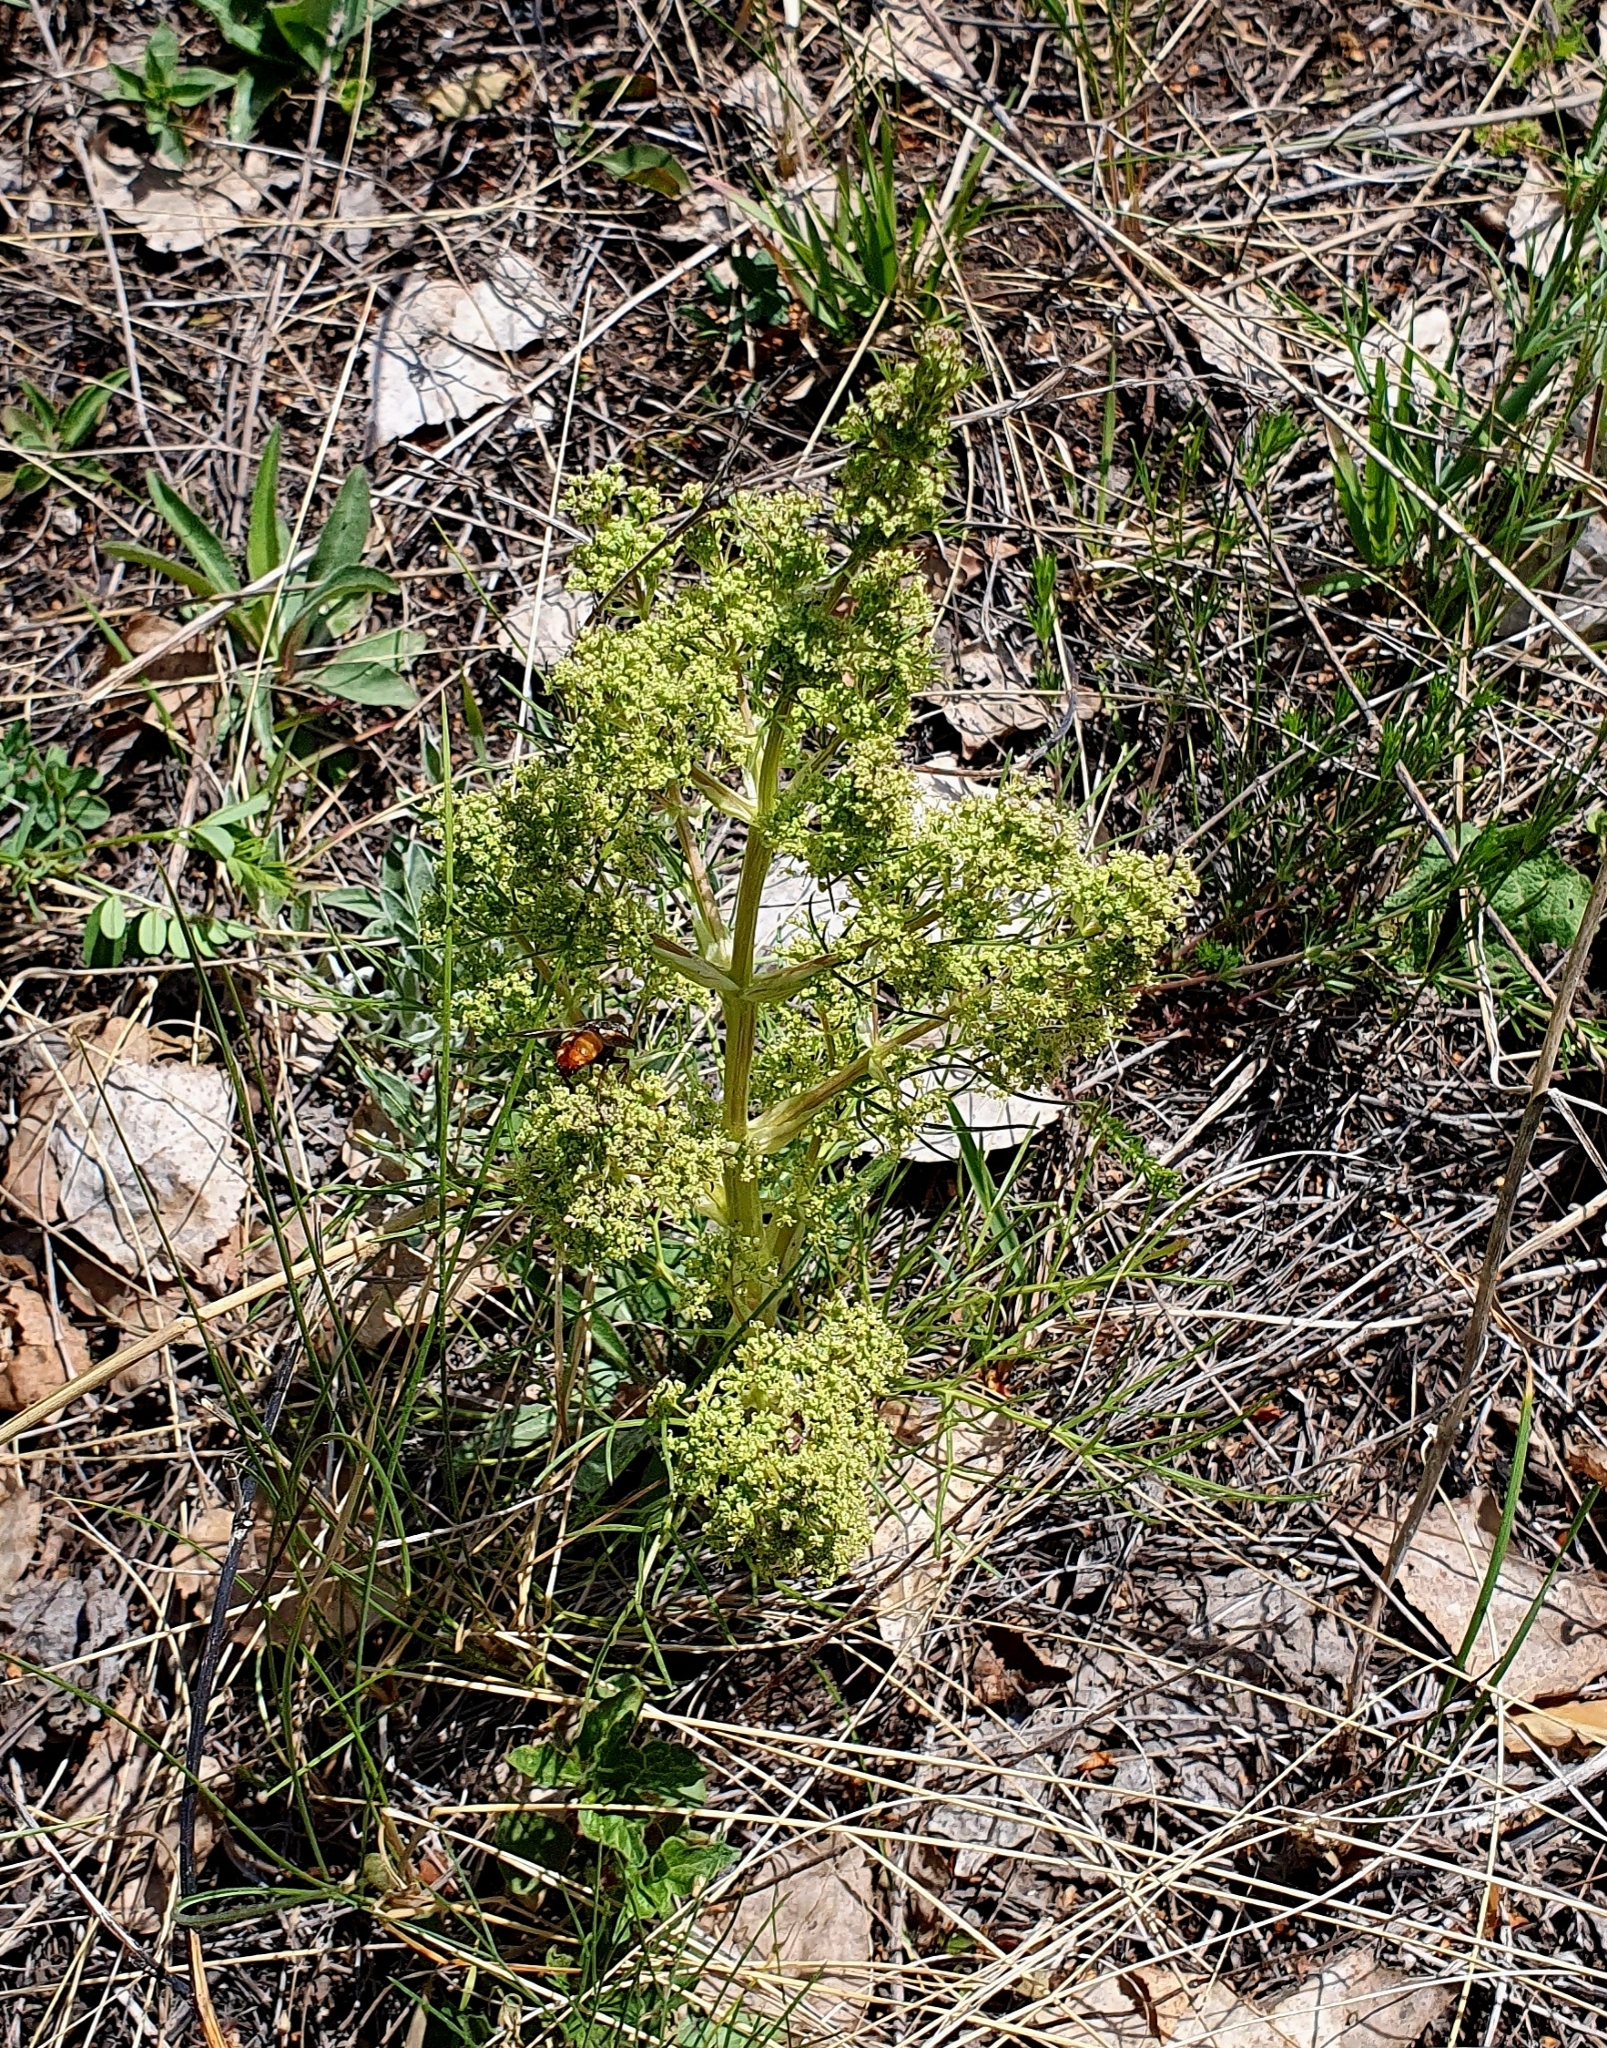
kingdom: Plantae
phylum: Tracheophyta
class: Magnoliopsida
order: Apiales
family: Apiaceae
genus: Trinia
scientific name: Trinia multicaulis
